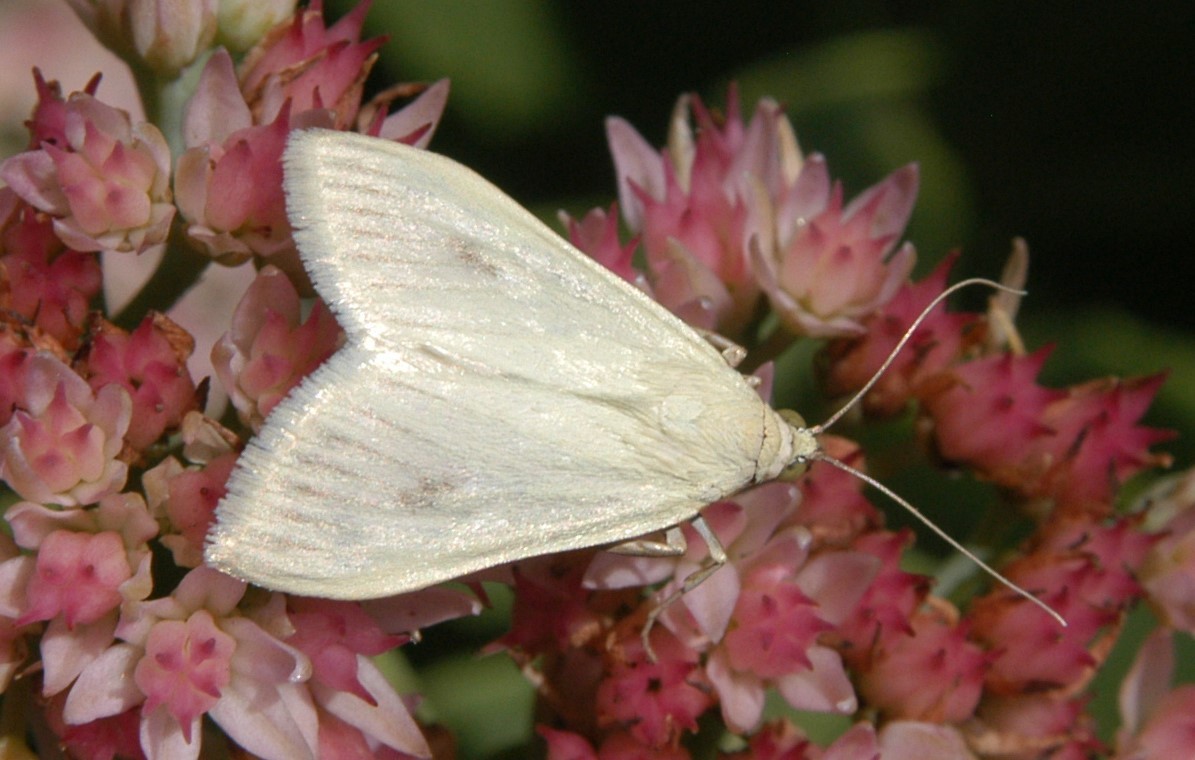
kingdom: Animalia
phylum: Arthropoda
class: Insecta
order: Lepidoptera
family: Crambidae
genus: Sitochroa
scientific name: Sitochroa palealis
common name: Greenish-yellow sitochroa moth
